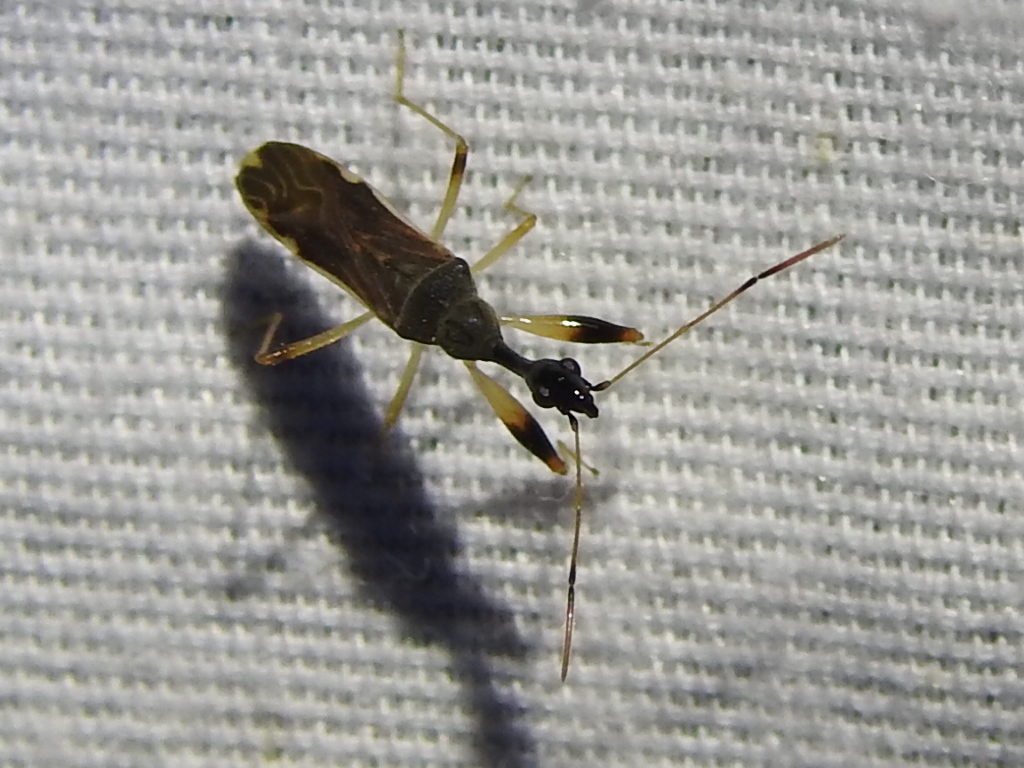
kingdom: Animalia
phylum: Arthropoda
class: Insecta
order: Hemiptera
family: Rhyparochromidae
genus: Myodocha
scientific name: Myodocha serripes
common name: Long-necked seed bug
